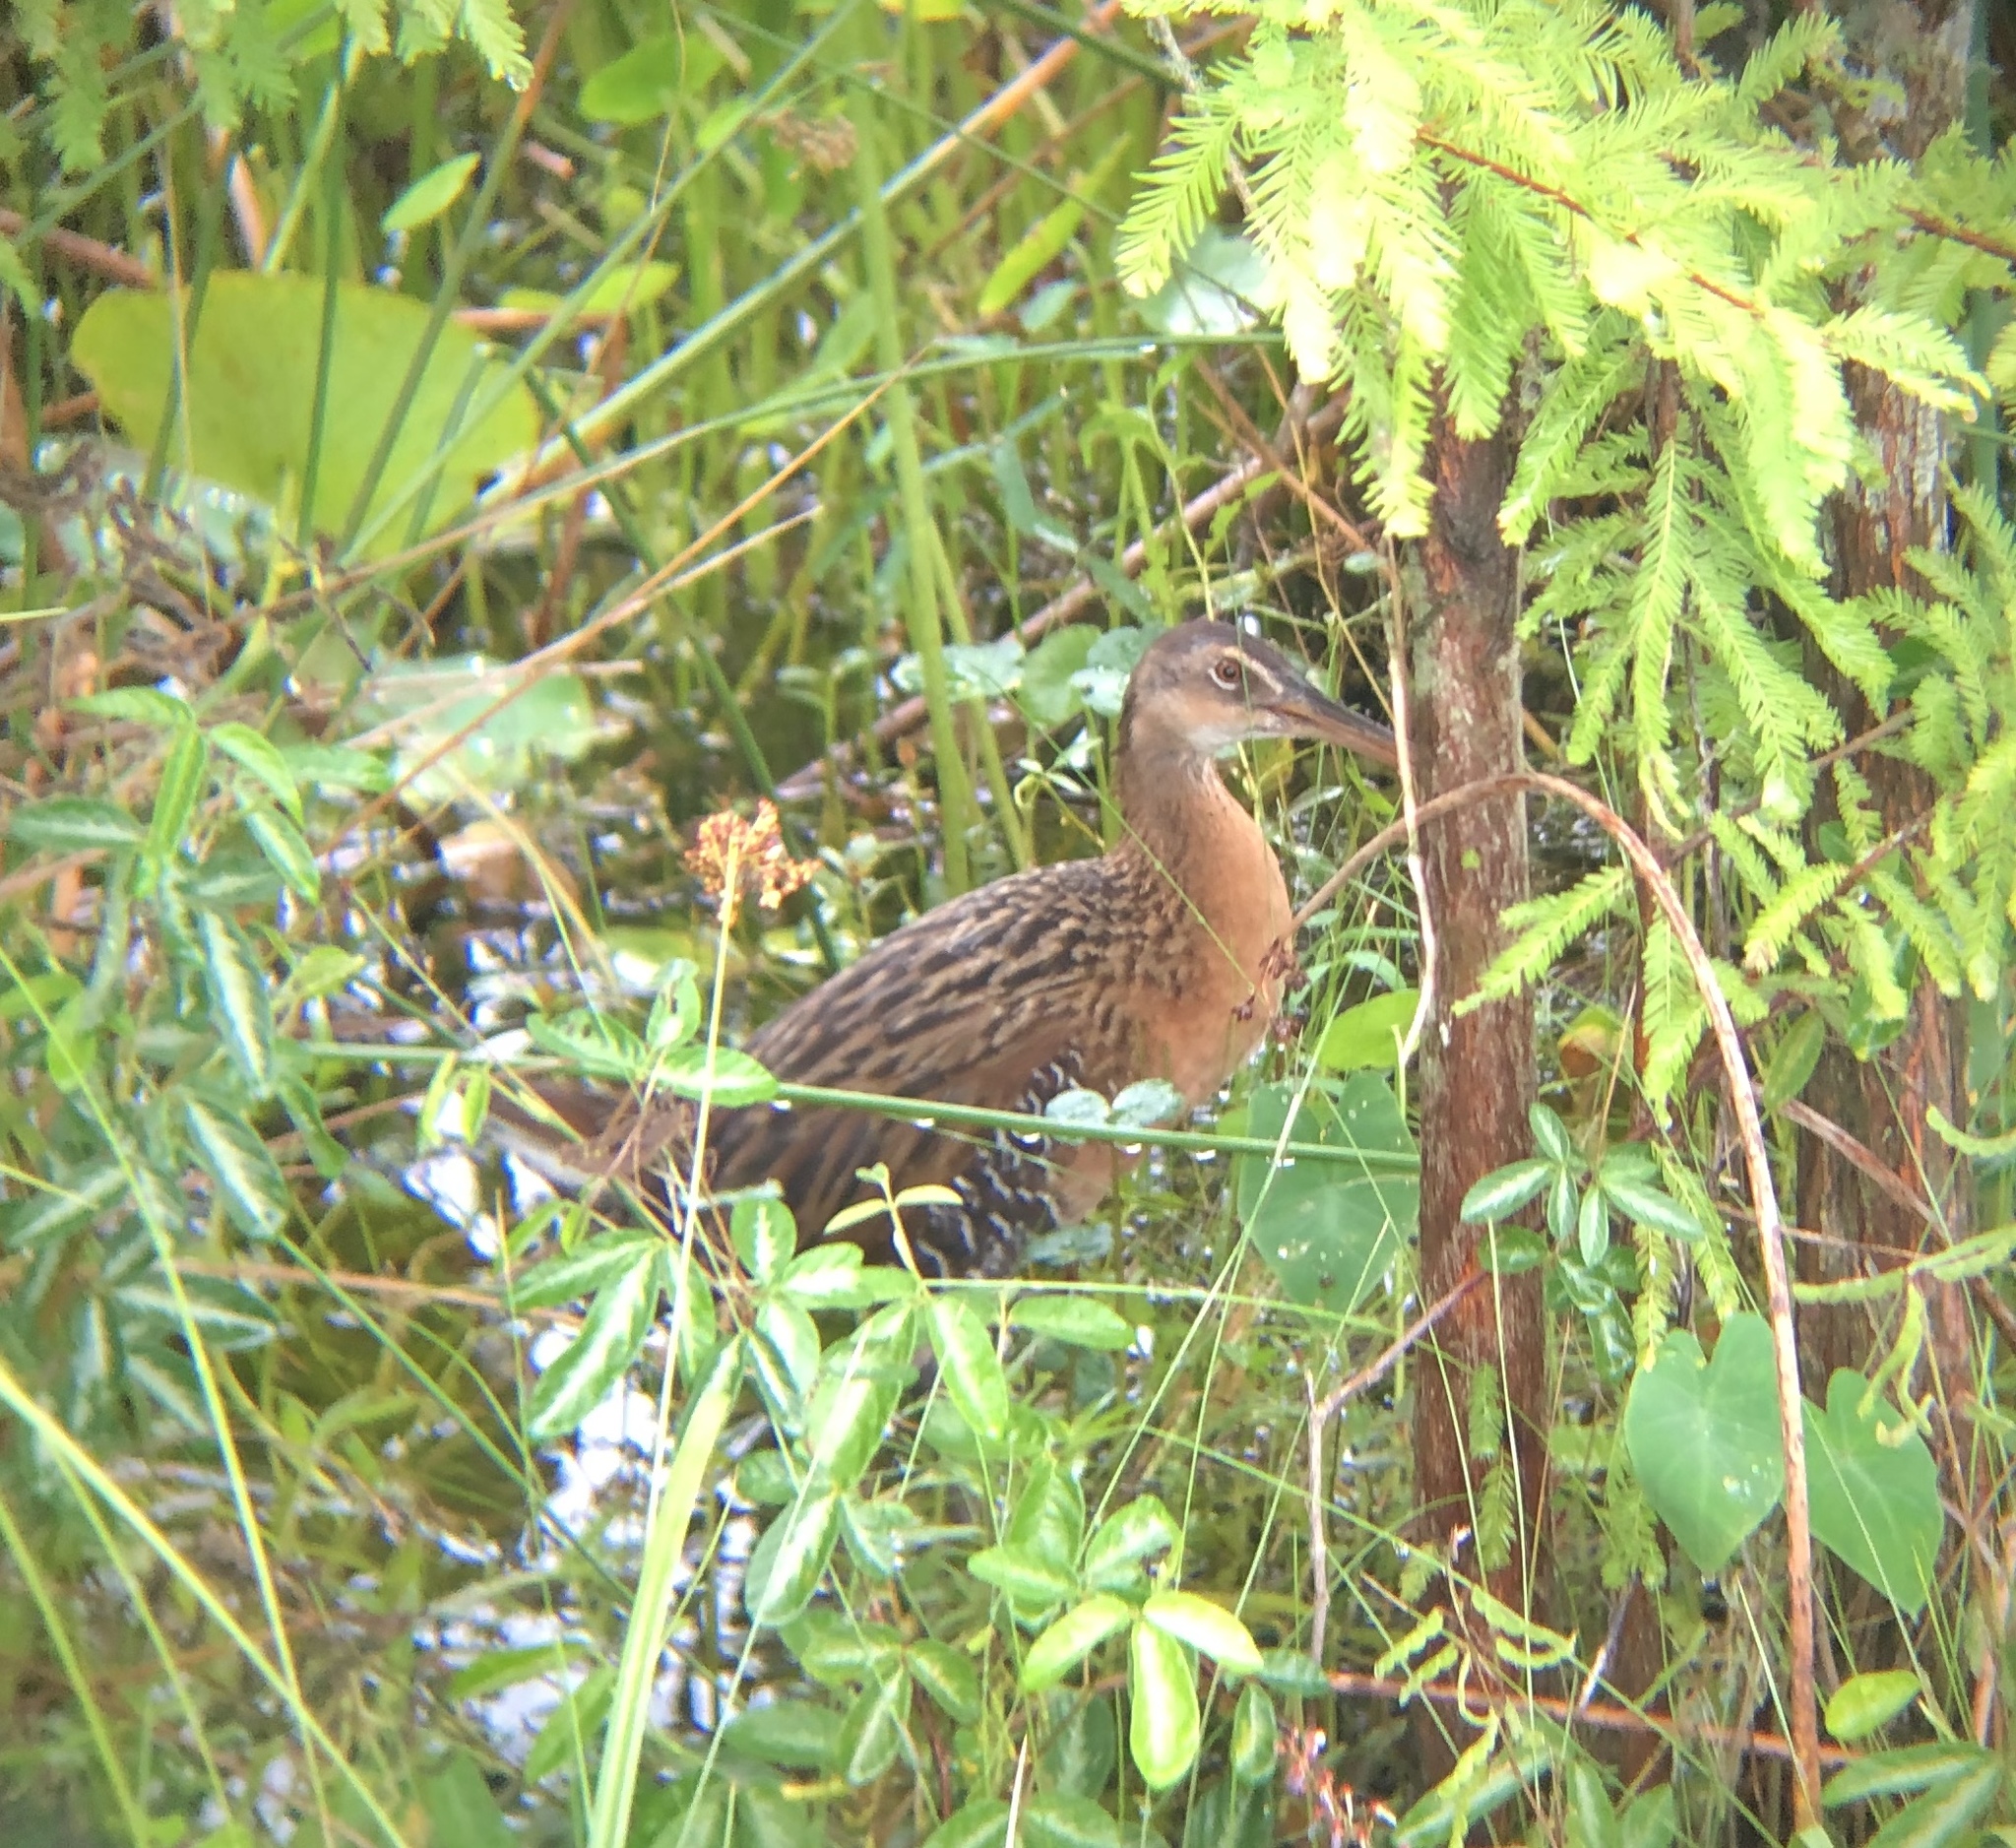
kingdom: Animalia
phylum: Chordata
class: Aves
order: Gruiformes
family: Rallidae
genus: Rallus
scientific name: Rallus elegans
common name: King rail
